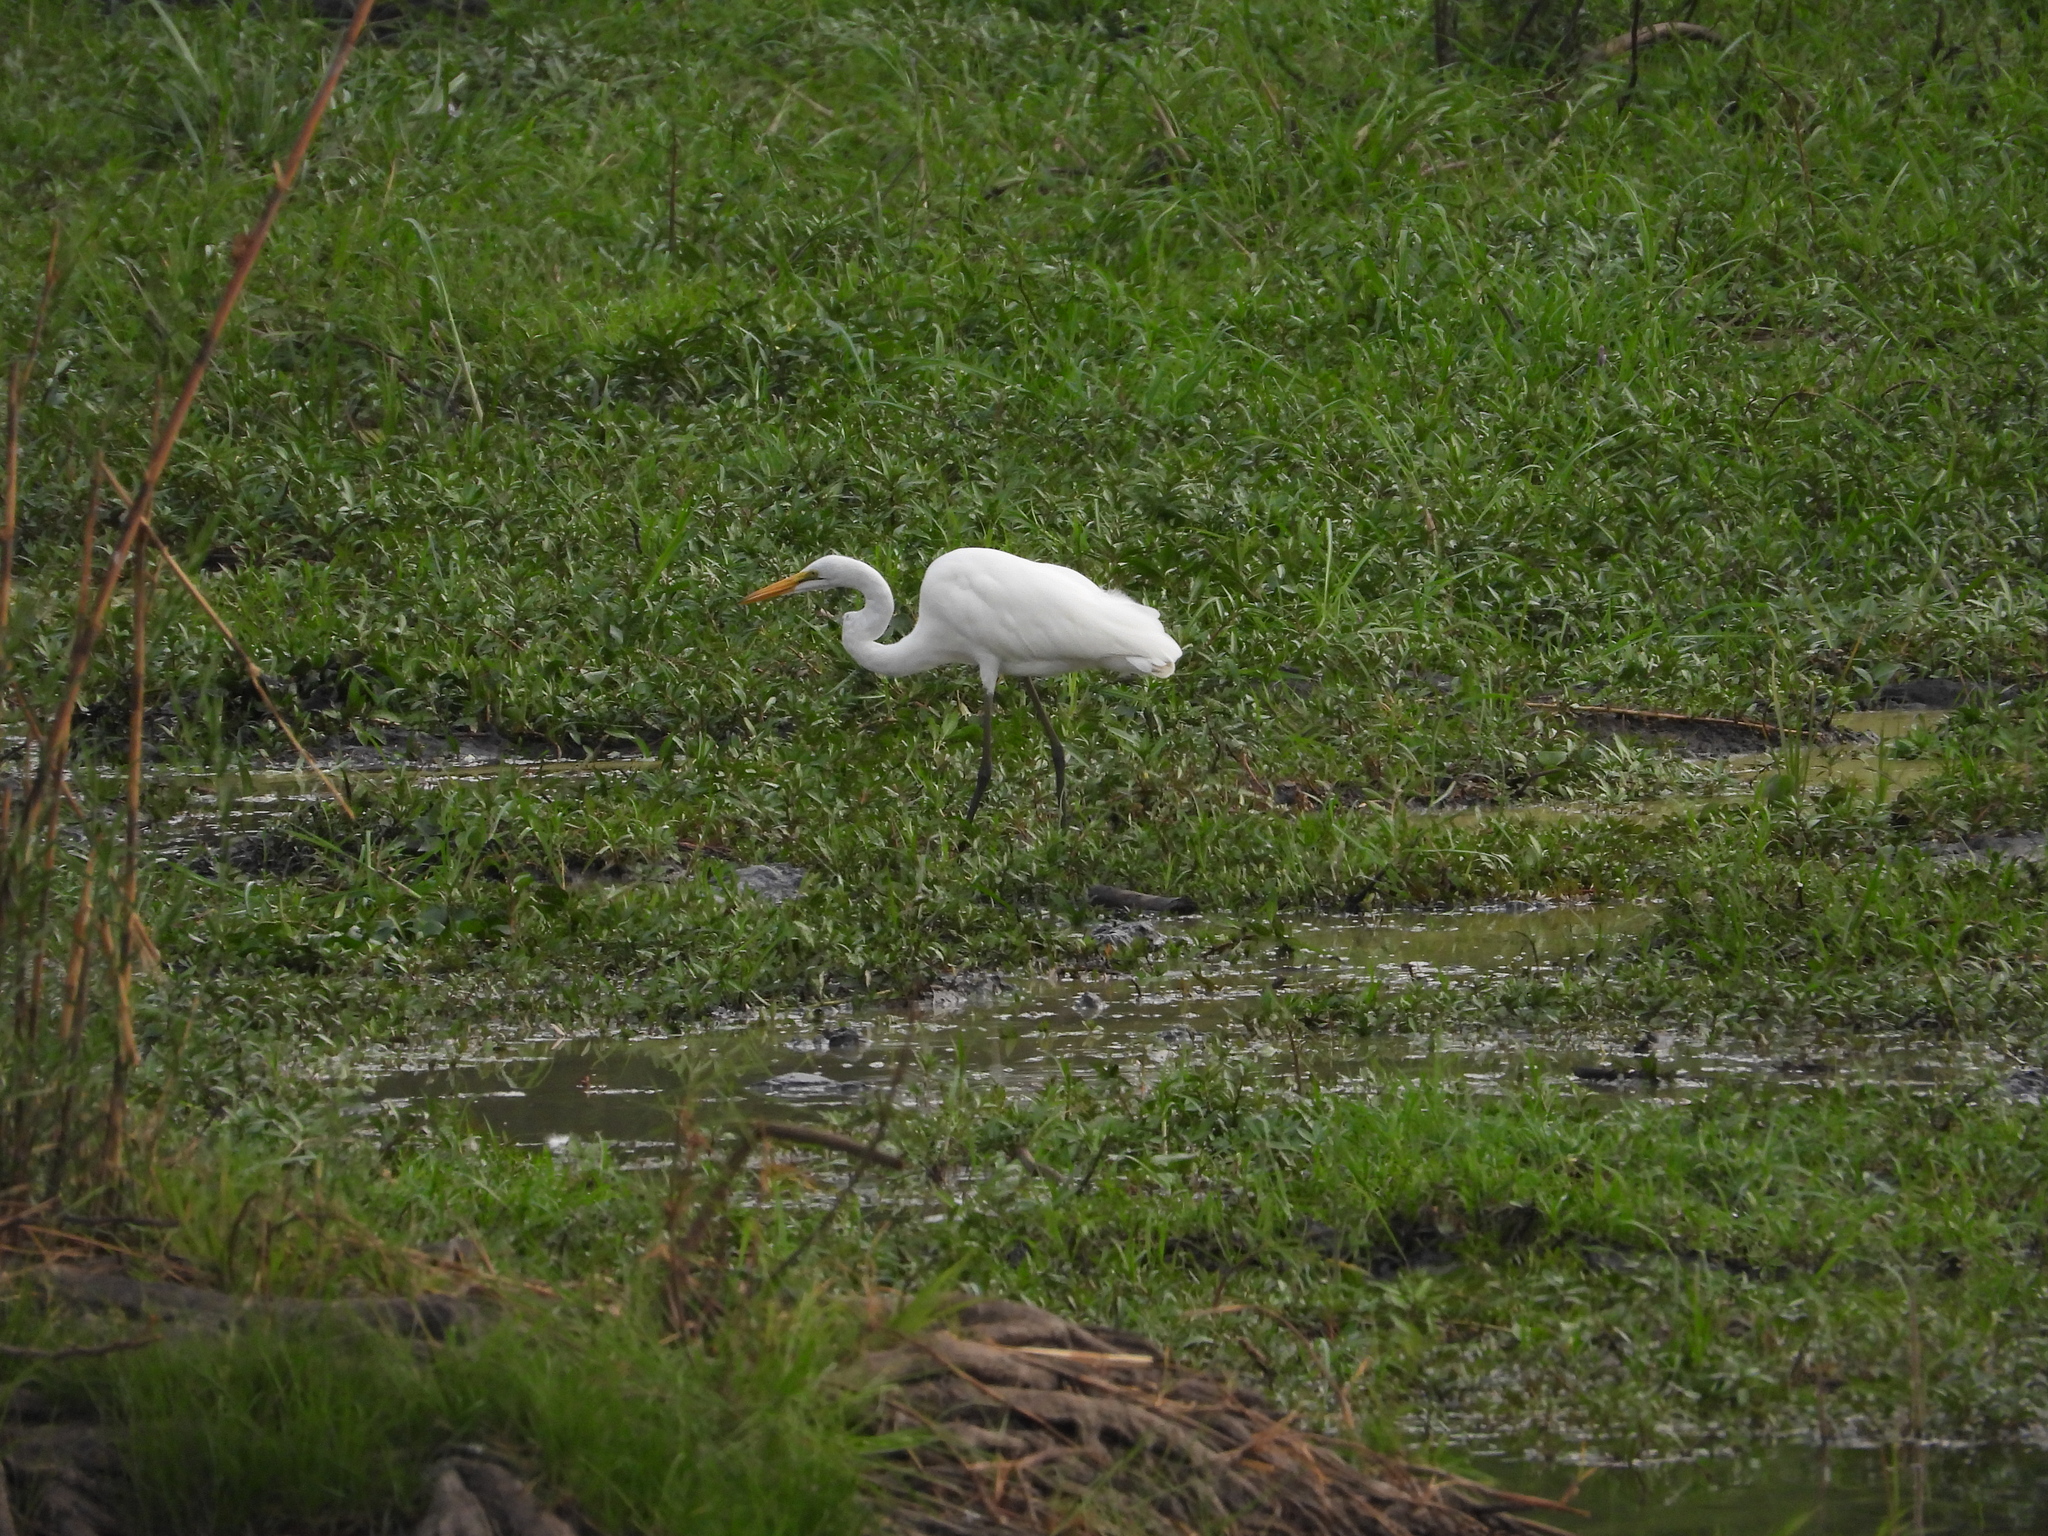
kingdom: Animalia
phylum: Chordata
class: Aves
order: Pelecaniformes
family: Ardeidae
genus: Ardea
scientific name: Ardea alba
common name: Great egret
